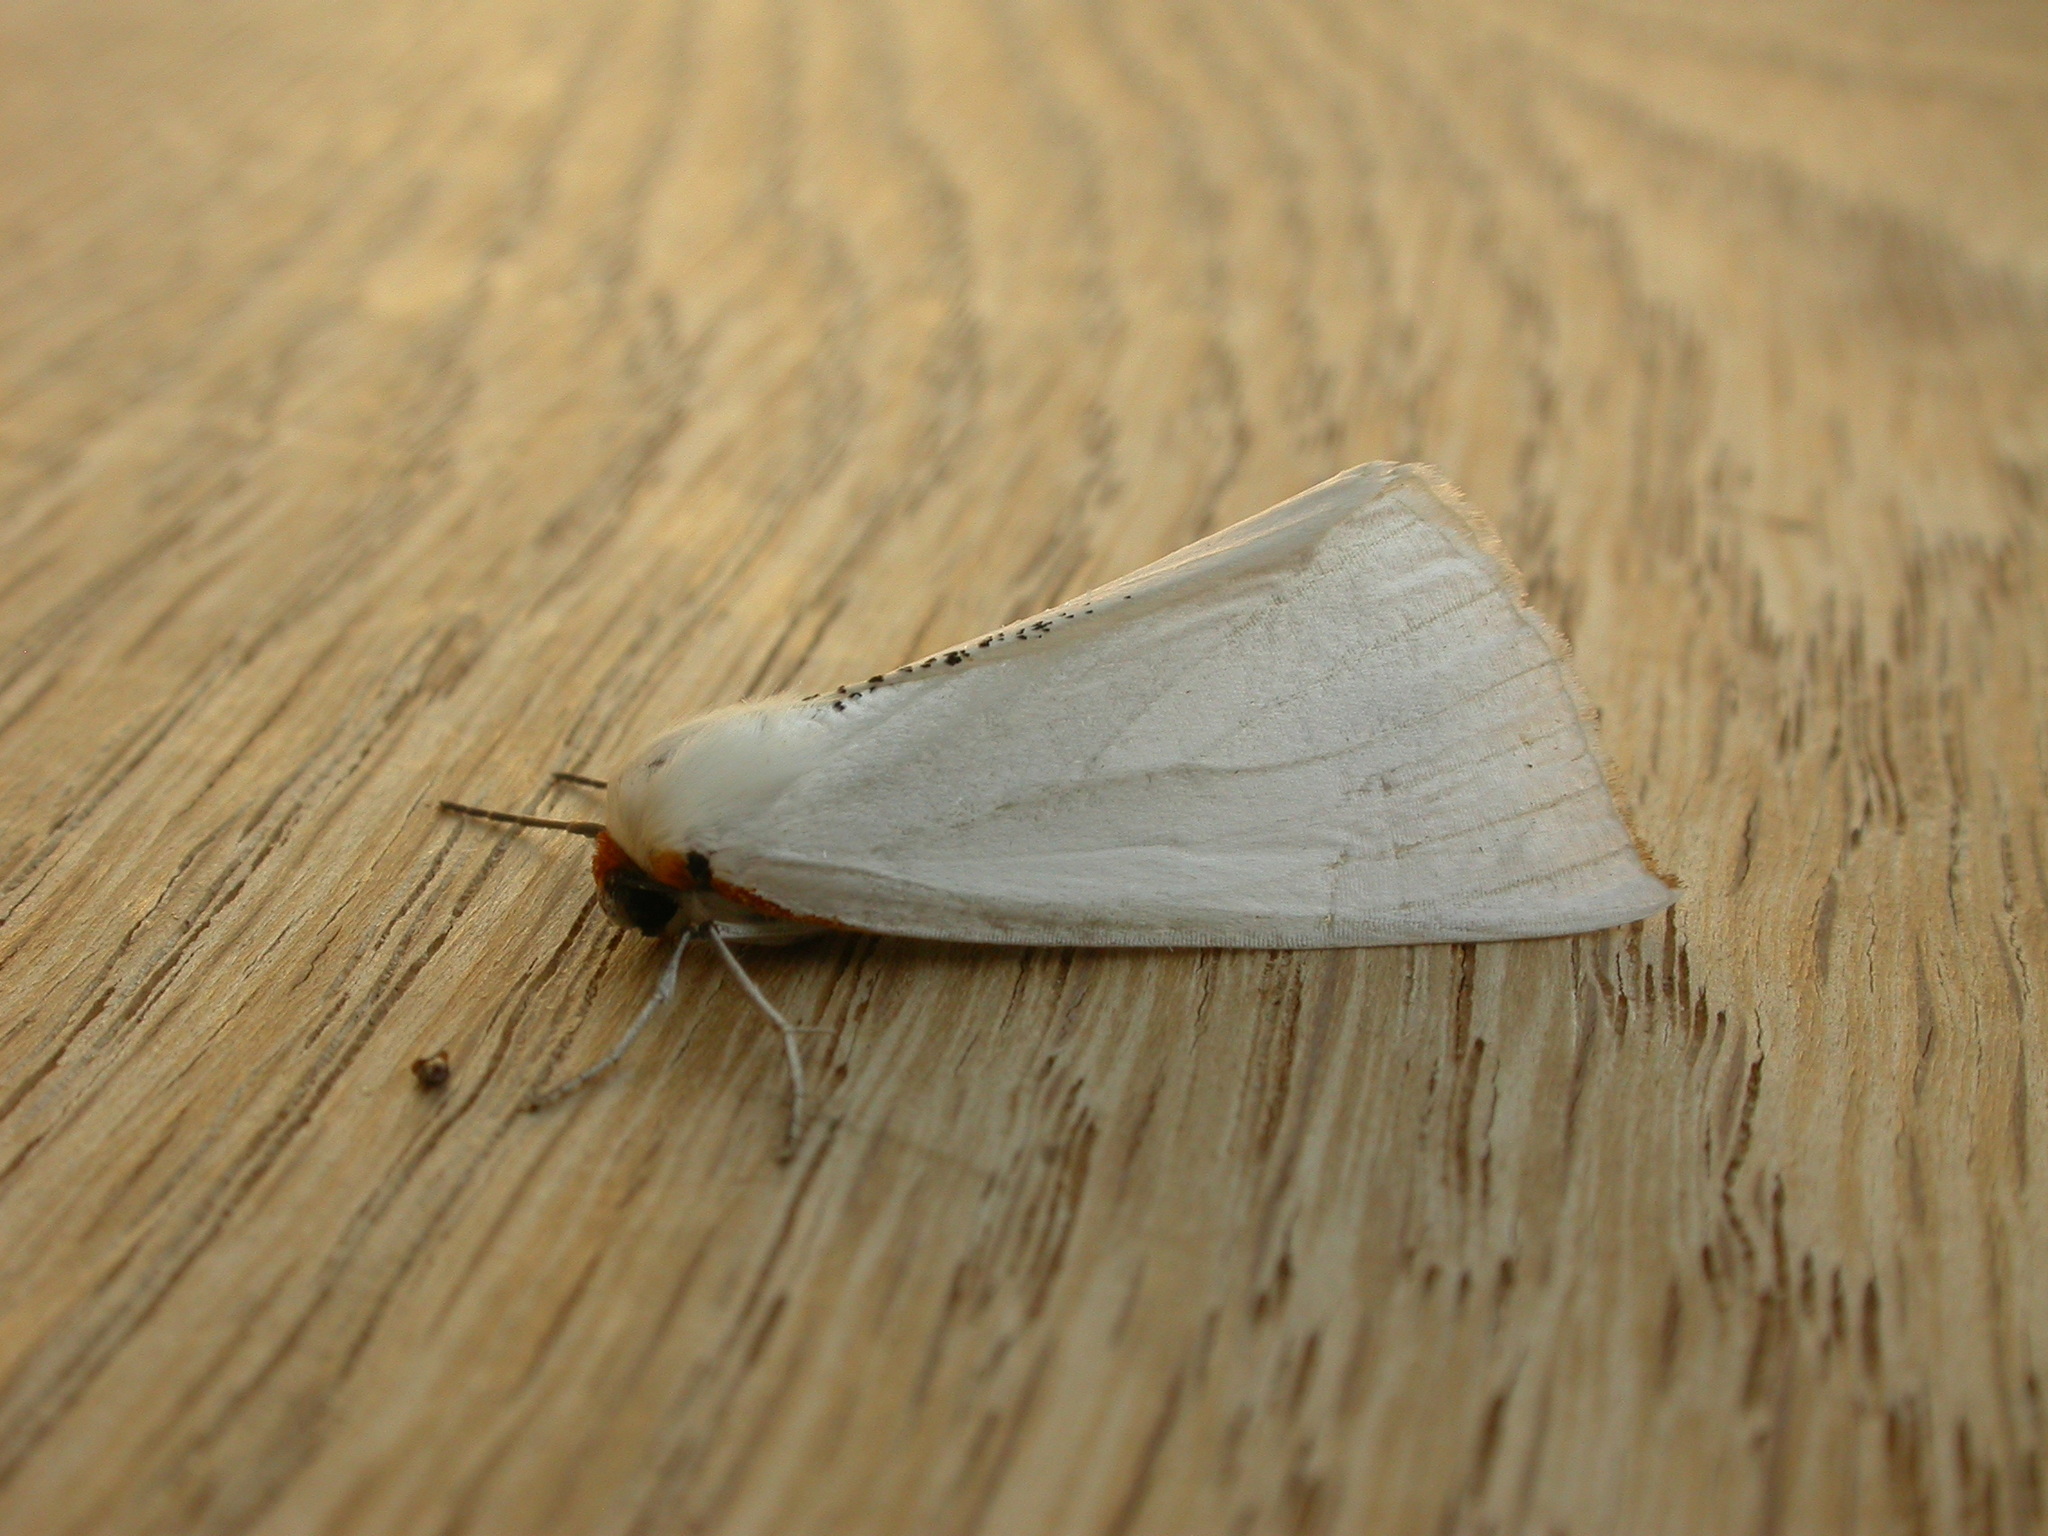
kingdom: Animalia
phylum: Arthropoda
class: Insecta
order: Lepidoptera
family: Geometridae
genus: Thalaina
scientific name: Thalaina selenaea
